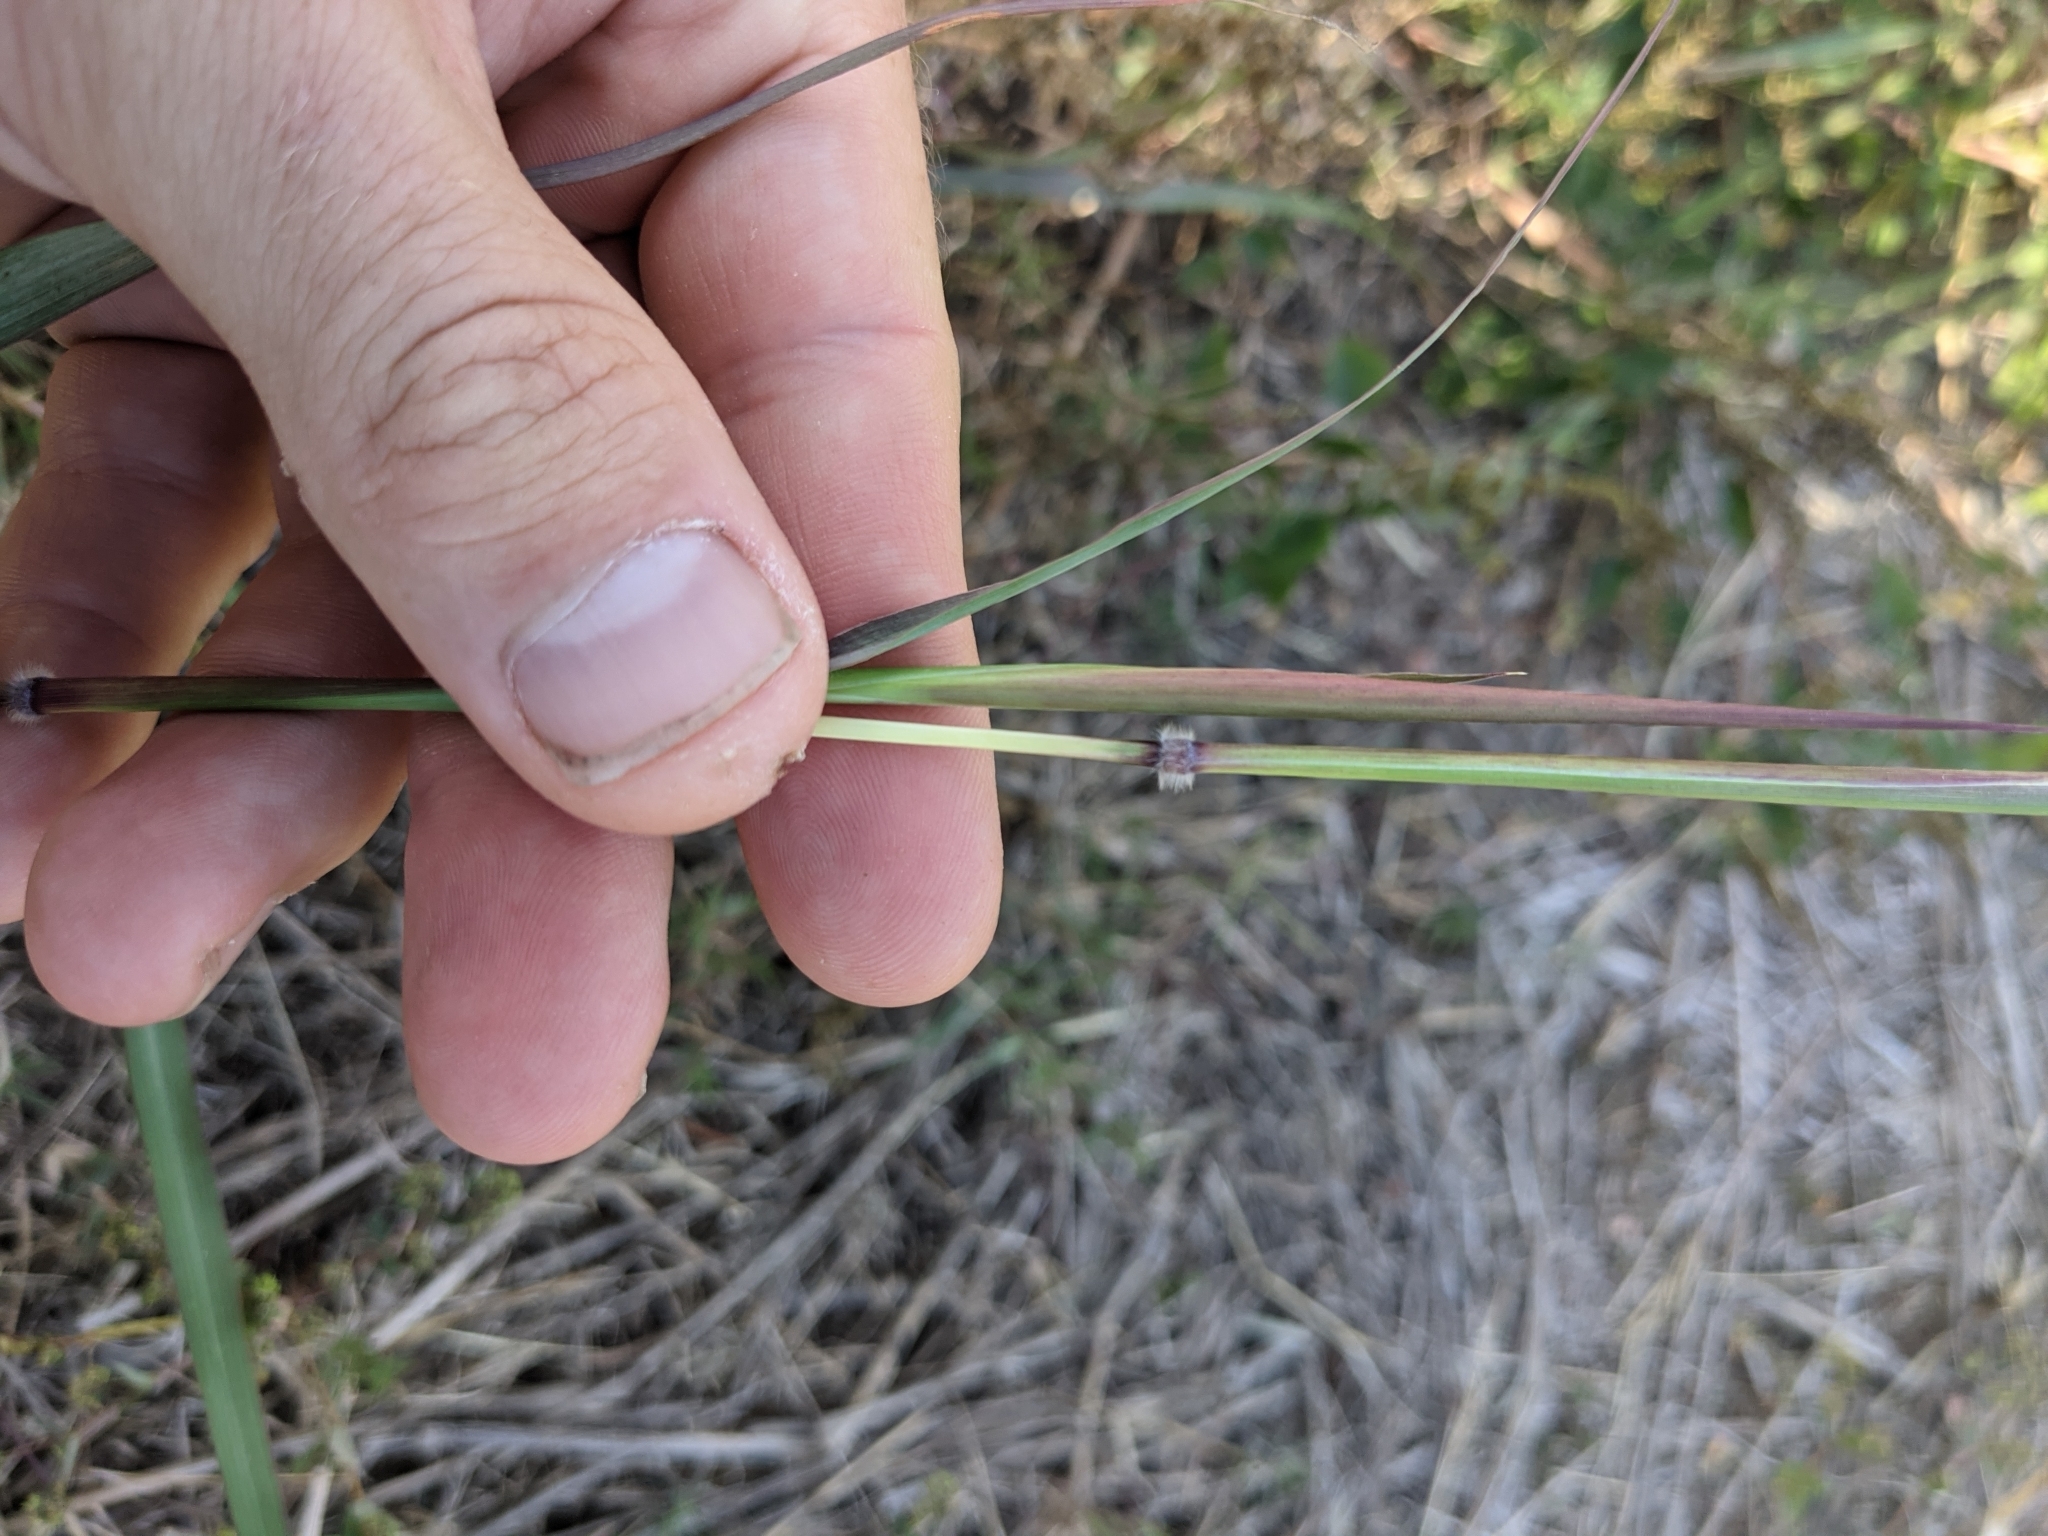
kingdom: Plantae
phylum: Tracheophyta
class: Liliopsida
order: Poales
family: Poaceae
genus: Dichanthium
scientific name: Dichanthium aristatum
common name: Angleton bluestem
